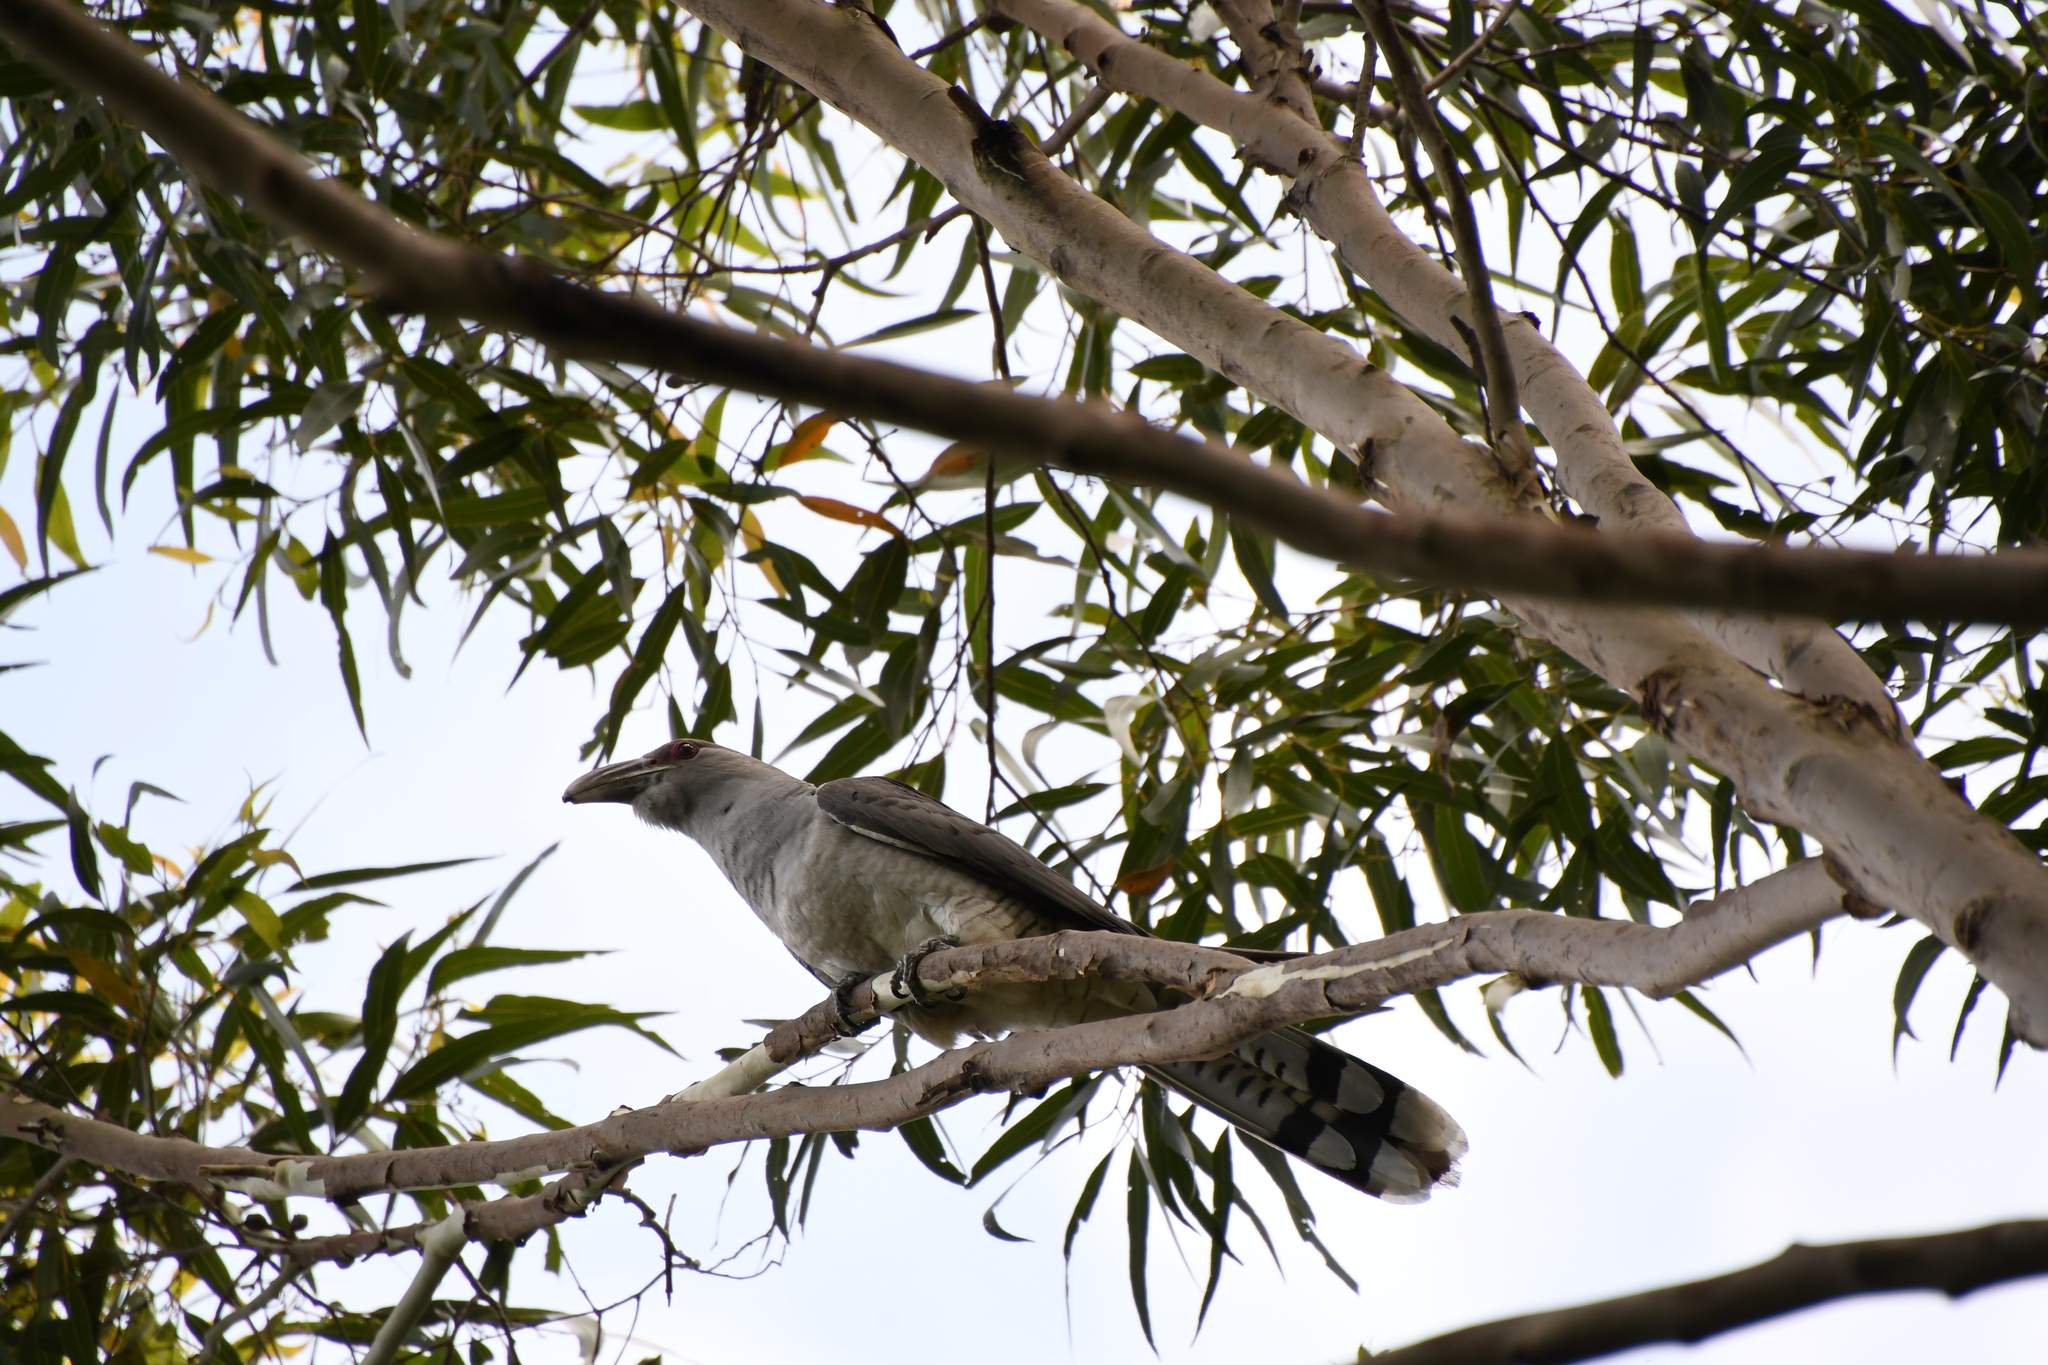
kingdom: Animalia
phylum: Chordata
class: Aves
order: Cuculiformes
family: Cuculidae
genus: Scythrops
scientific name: Scythrops novaehollandiae
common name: Channel-billed cuckoo
